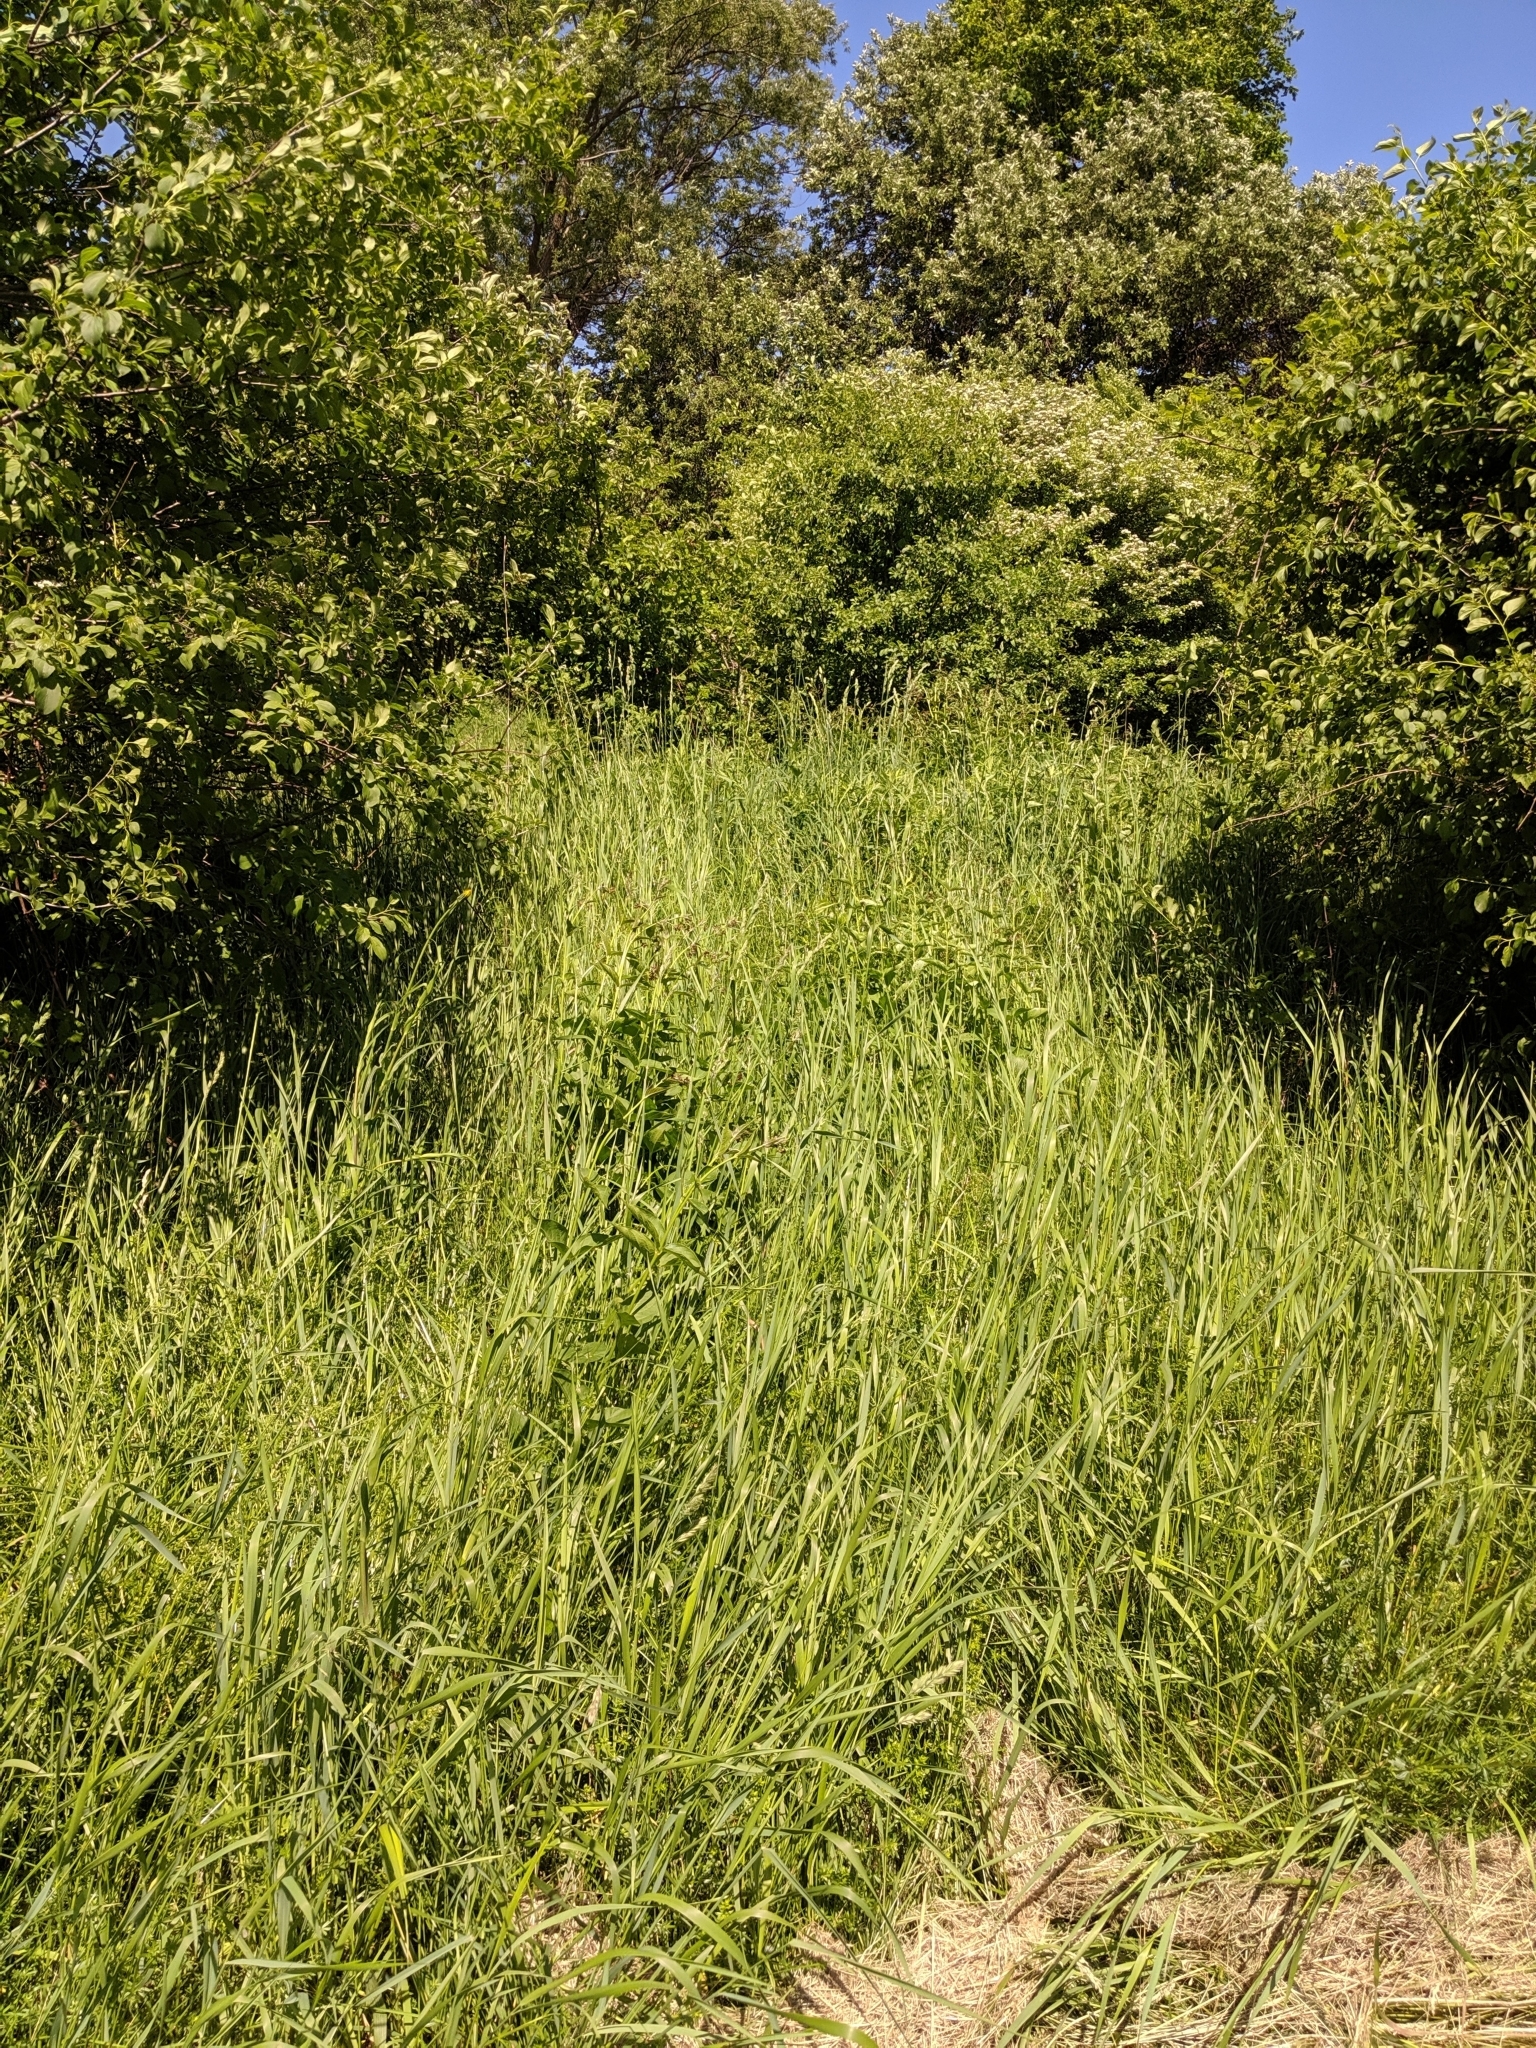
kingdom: Plantae
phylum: Tracheophyta
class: Magnoliopsida
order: Gentianales
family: Apocynaceae
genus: Vincetoxicum
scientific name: Vincetoxicum rossicum
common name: Dog-strangling vine
